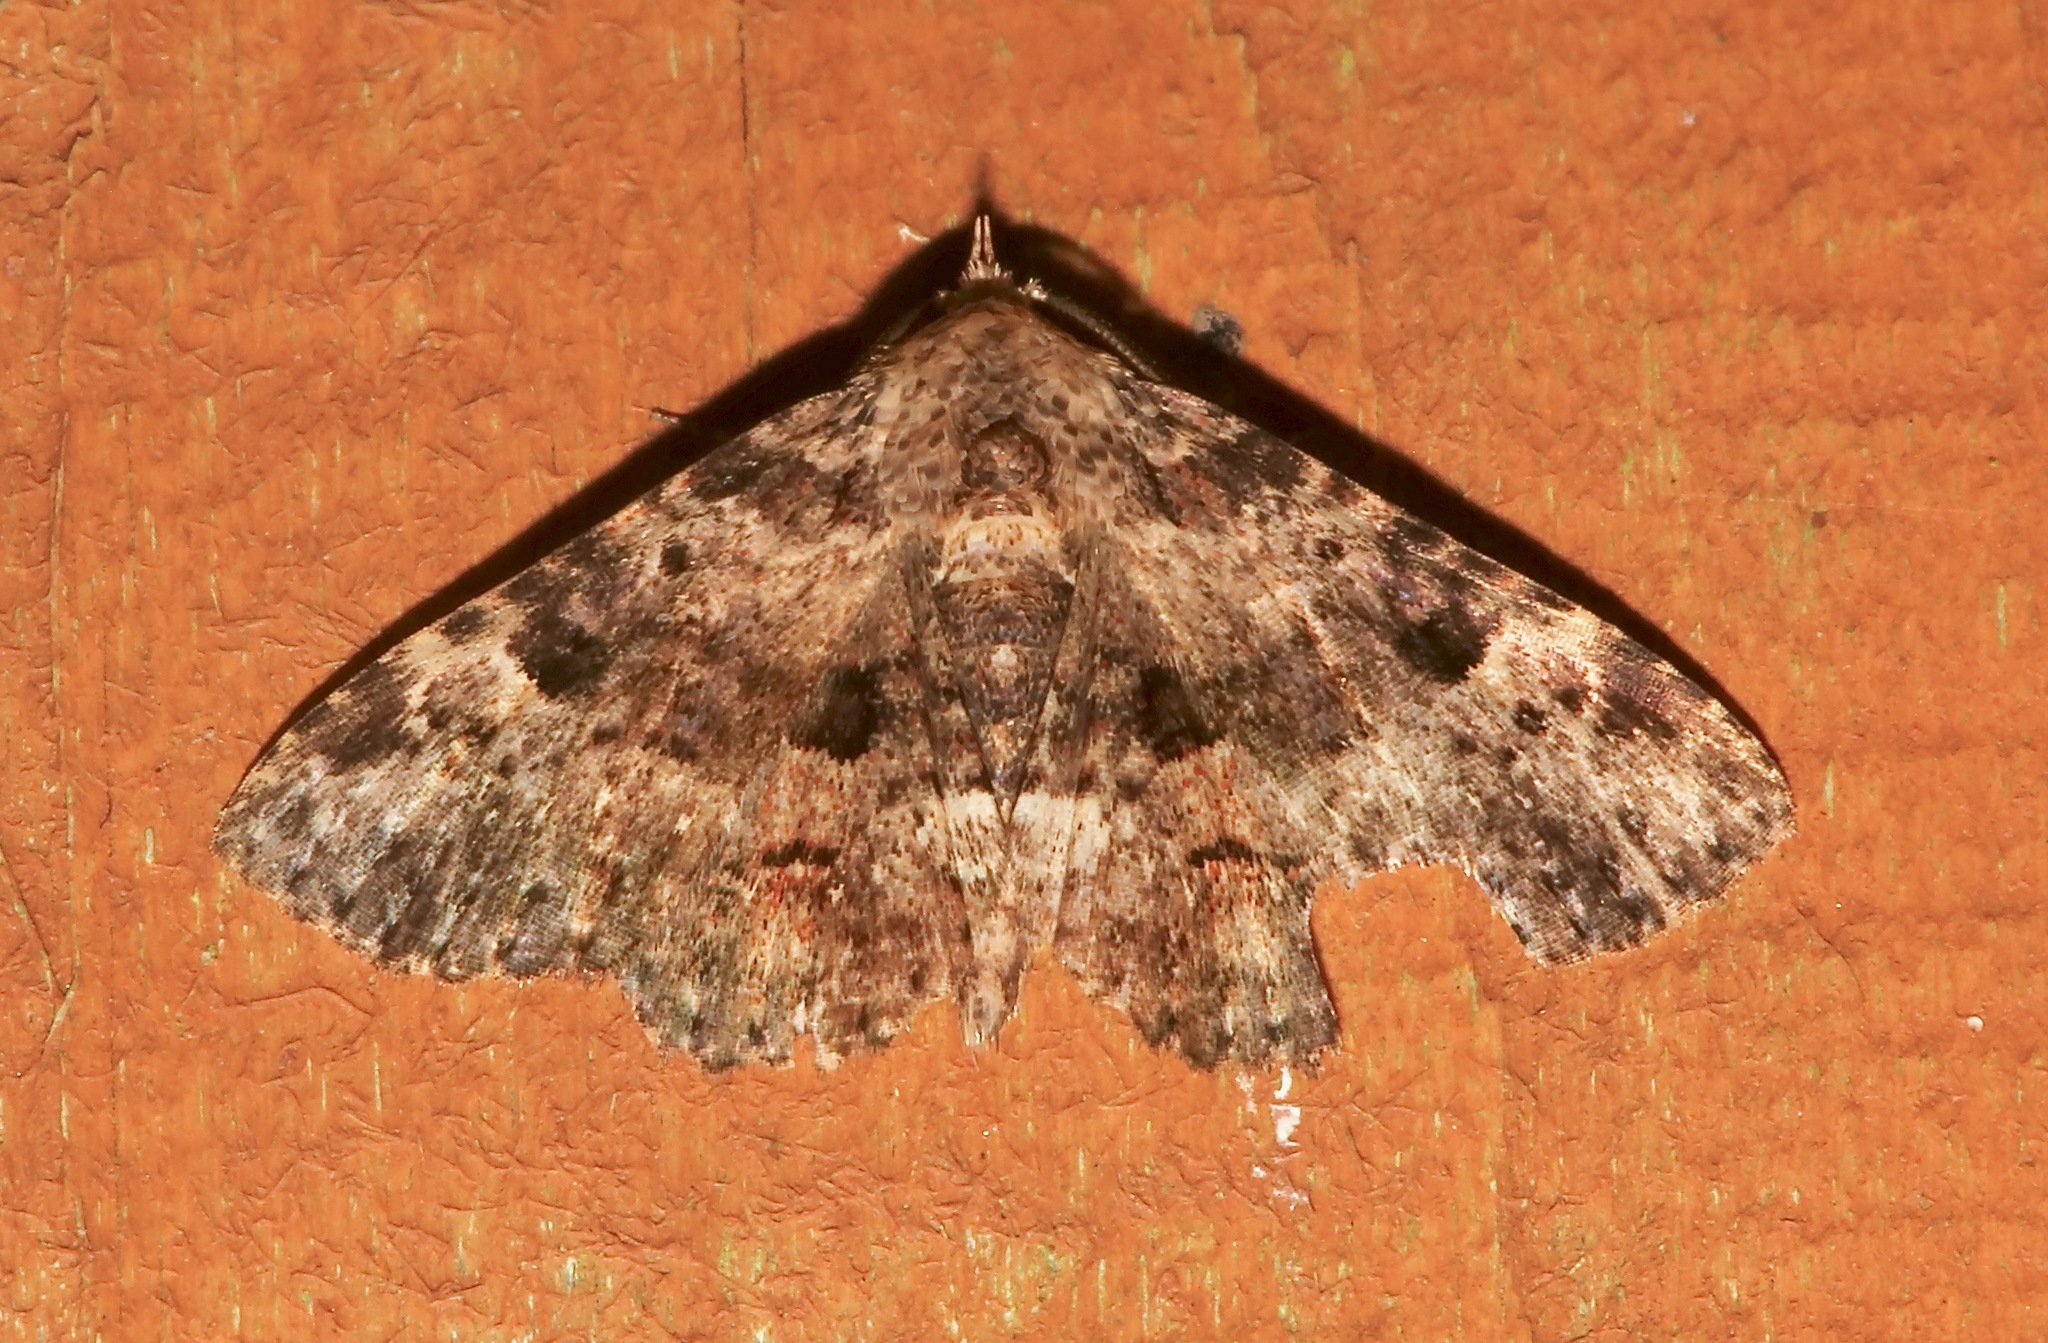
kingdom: Animalia
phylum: Arthropoda
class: Insecta
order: Lepidoptera
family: Erebidae
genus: Metalectra
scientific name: Metalectra discalis
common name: Common fungus moth
